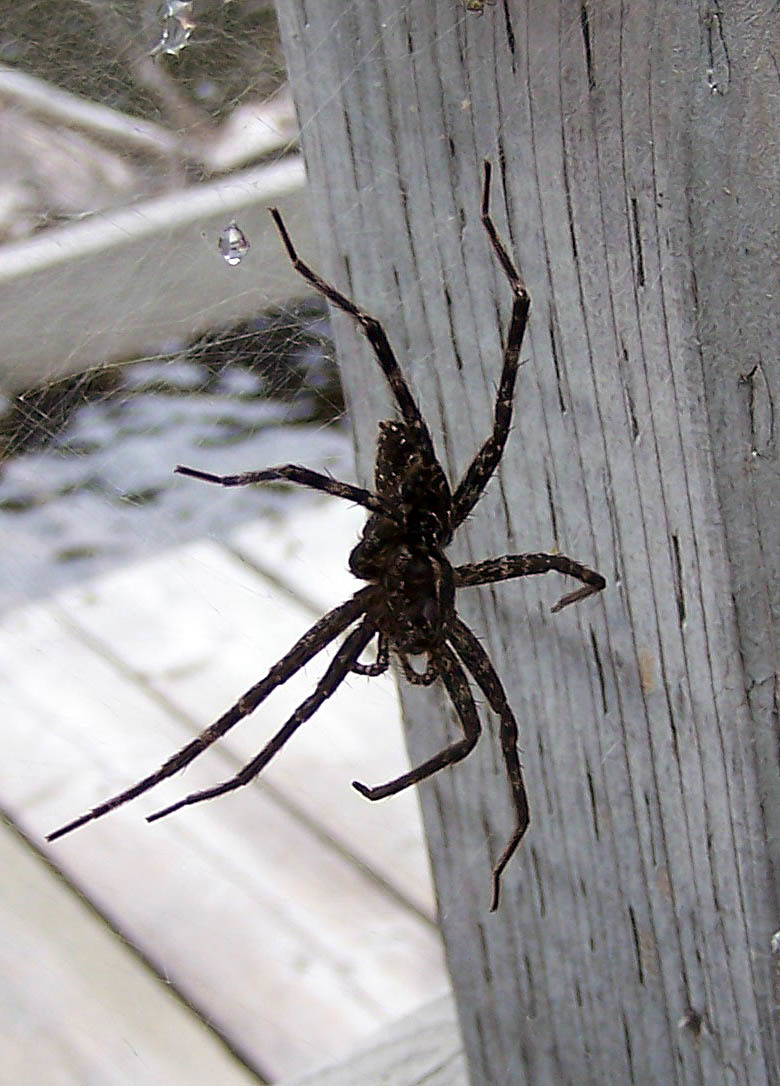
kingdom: Animalia
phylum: Arthropoda
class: Arachnida
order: Araneae
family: Pisauridae
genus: Dolomedes
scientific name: Dolomedes scriptus
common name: Striped fishing spider
